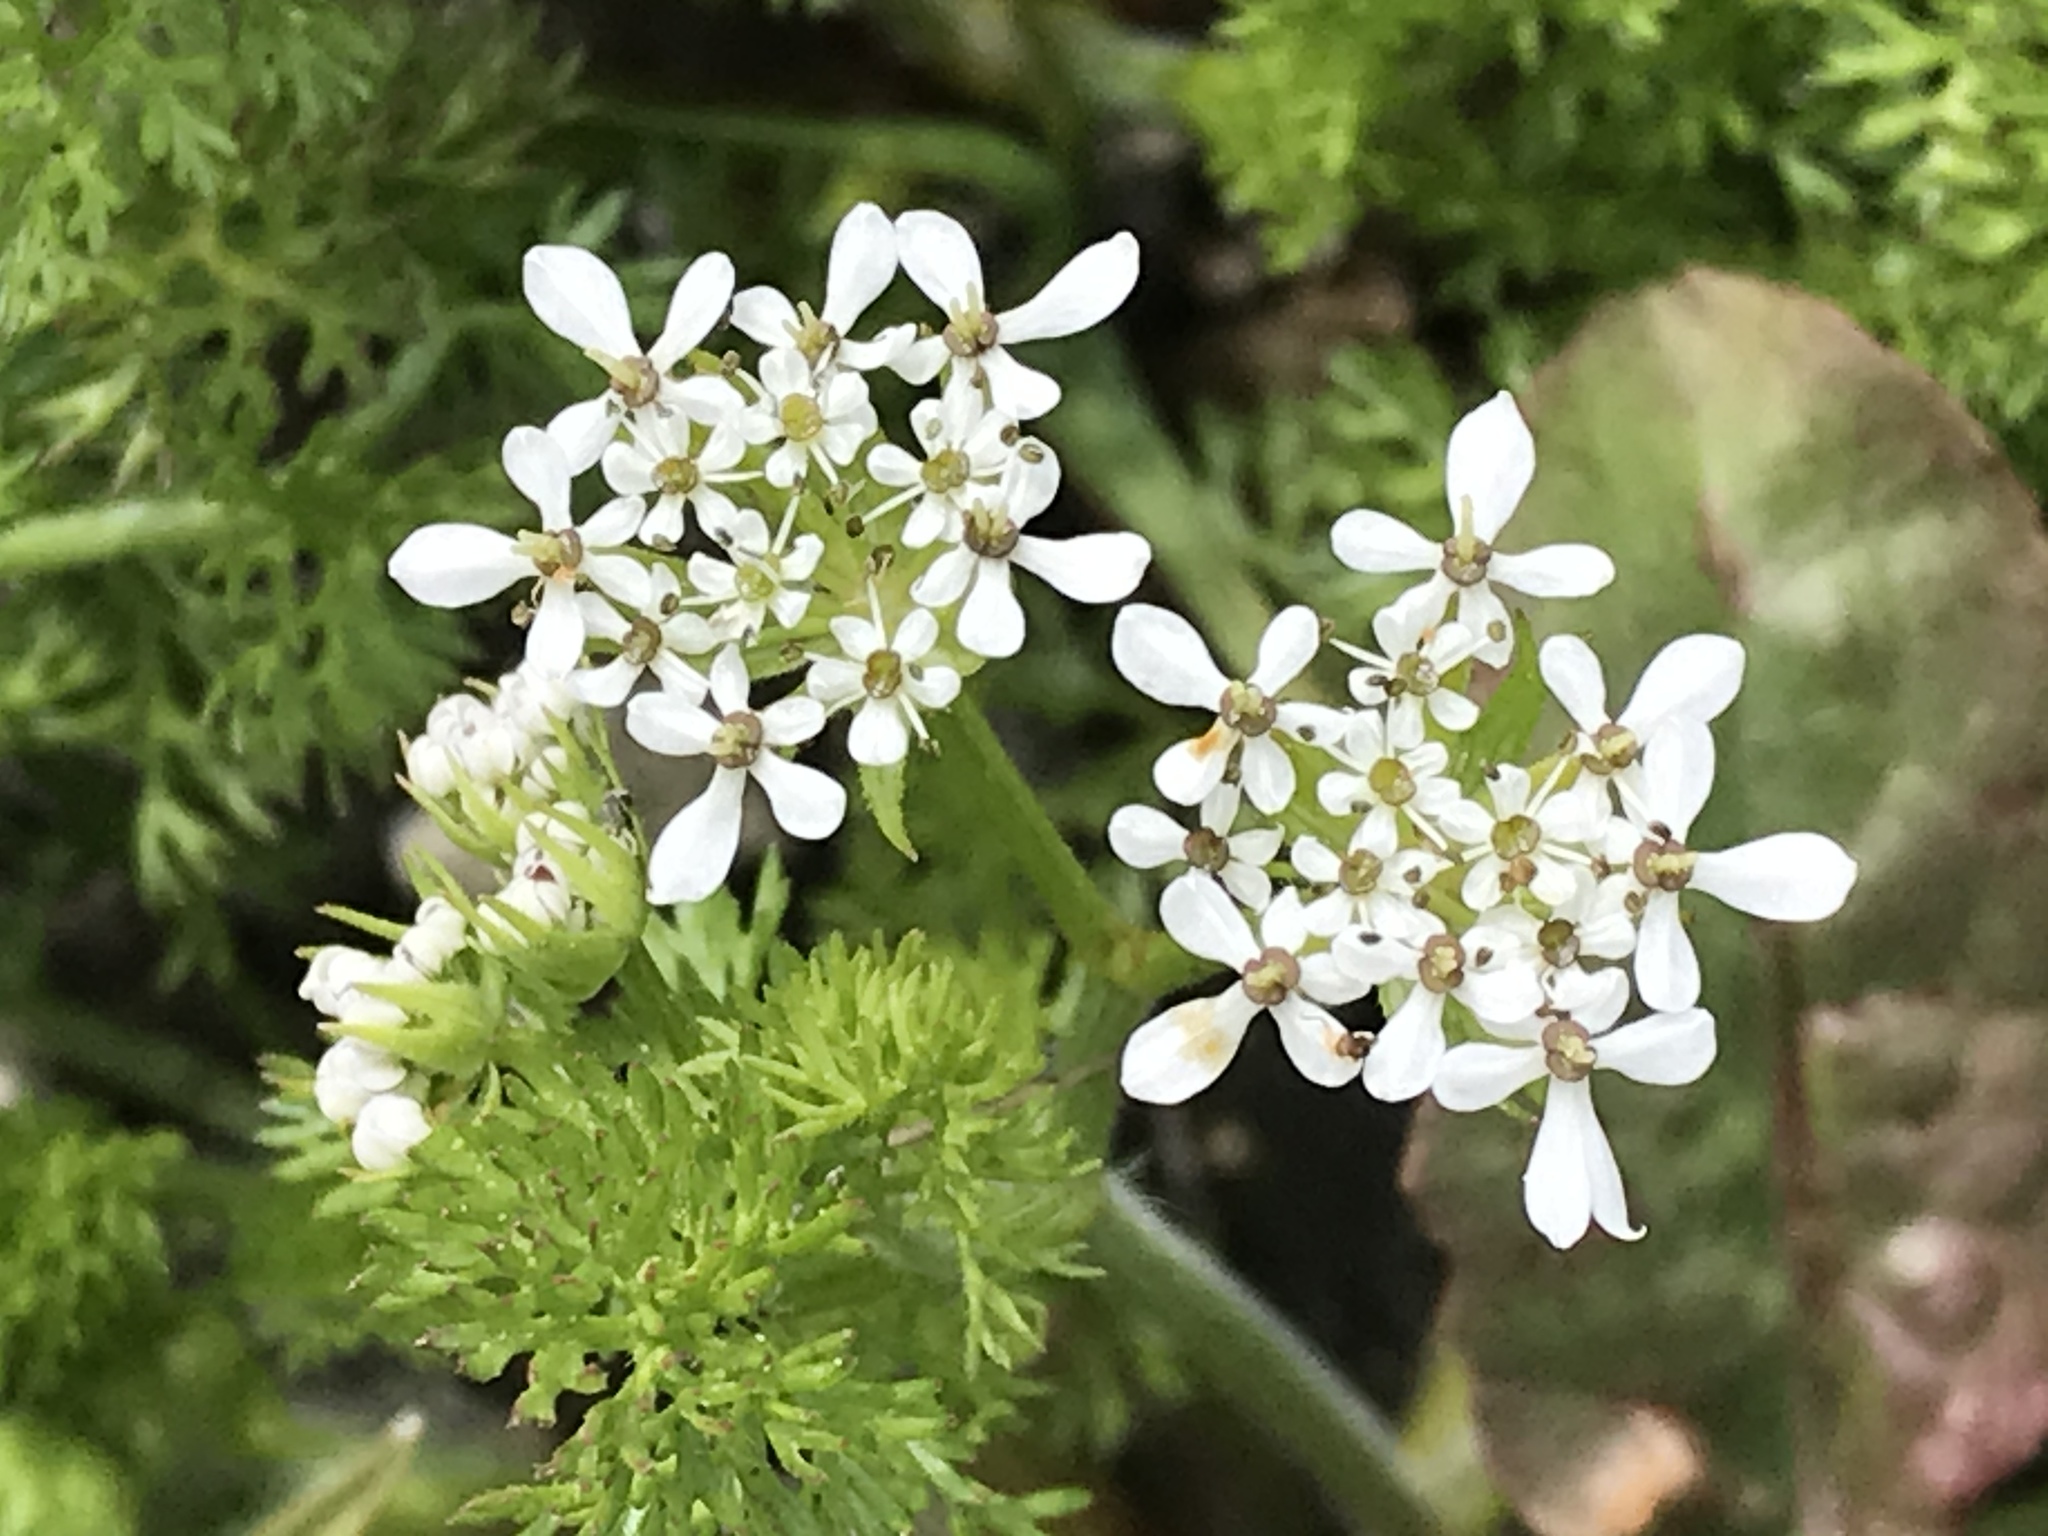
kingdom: Plantae
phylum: Tracheophyta
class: Magnoliopsida
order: Apiales
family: Apiaceae
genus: Scandix
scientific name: Scandix pecten-veneris
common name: Shepherd's-needle
